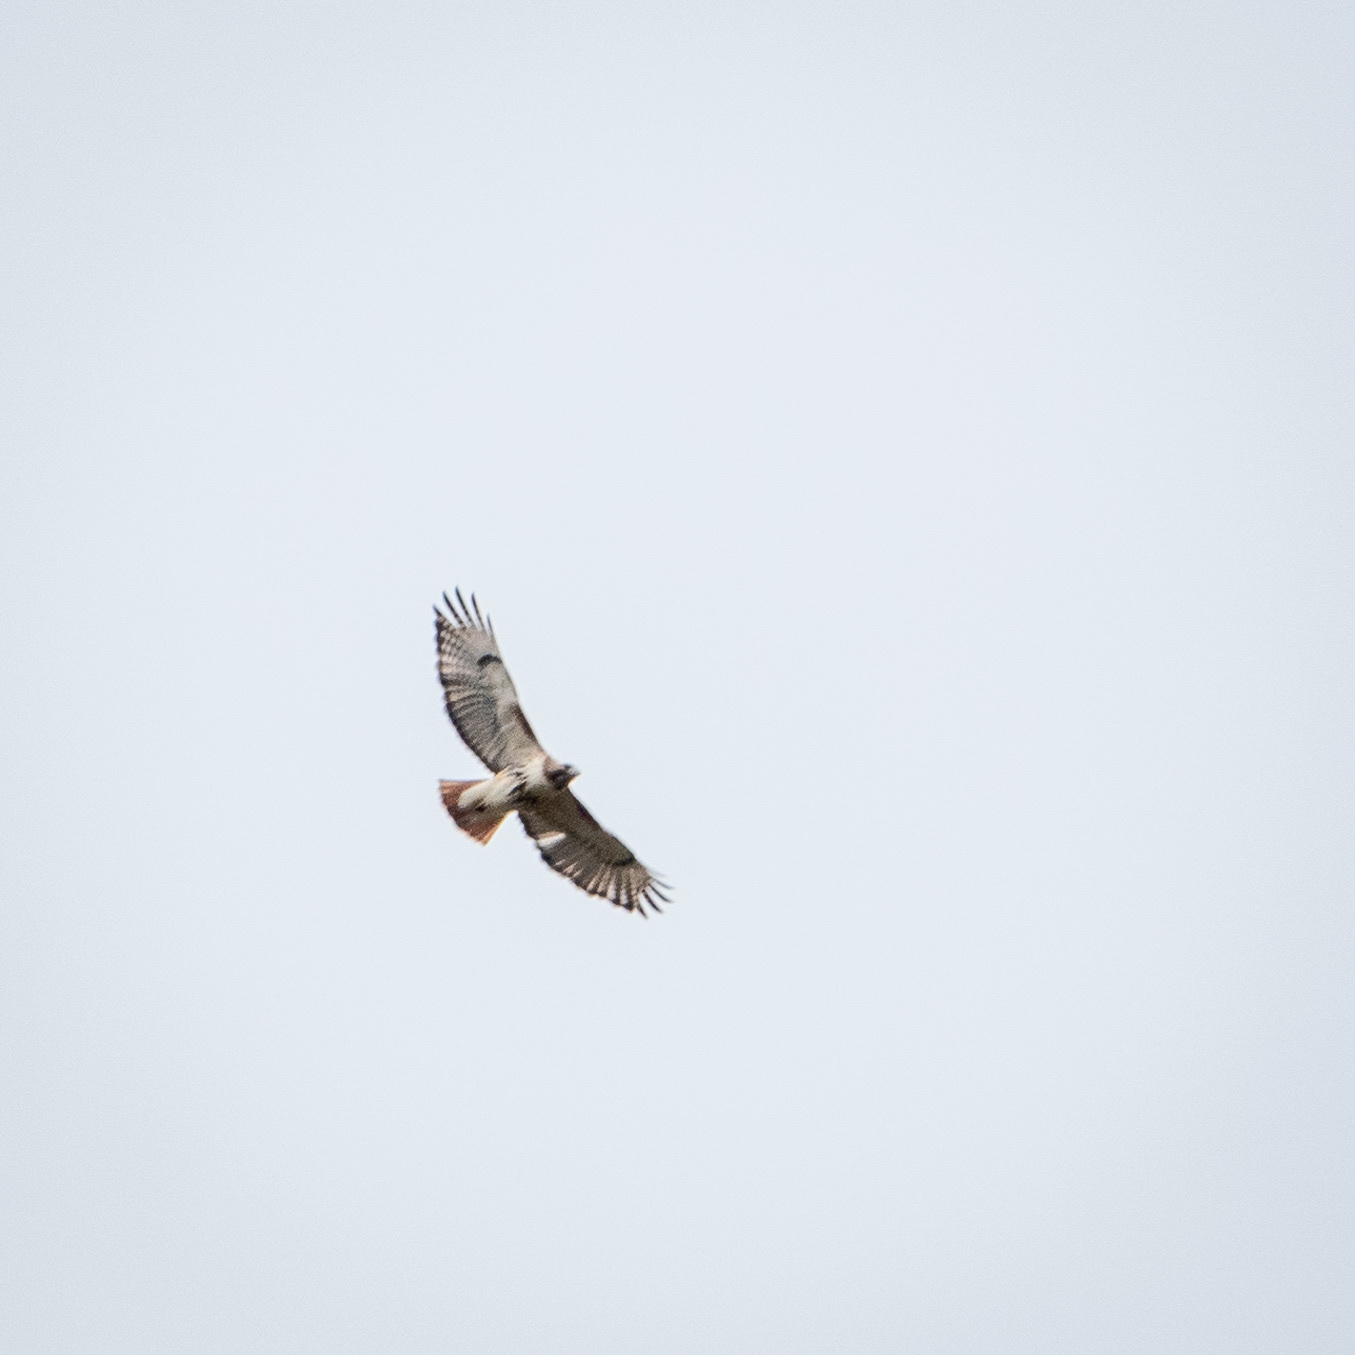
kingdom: Animalia
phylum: Chordata
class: Aves
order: Accipitriformes
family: Accipitridae
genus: Buteo
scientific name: Buteo jamaicensis
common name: Red-tailed hawk
